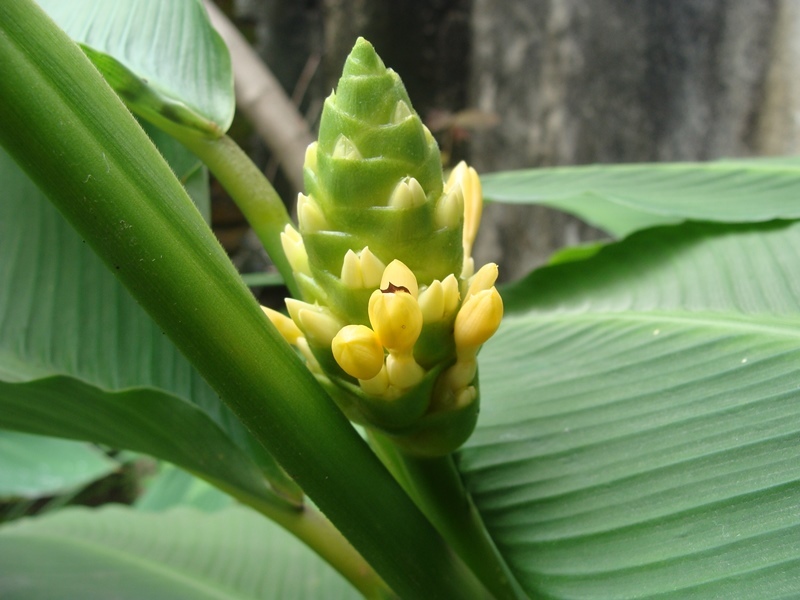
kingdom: Plantae
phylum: Tracheophyta
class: Liliopsida
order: Zingiberales
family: Marantaceae
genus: Goeppertia
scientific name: Goeppertia macrosepala
